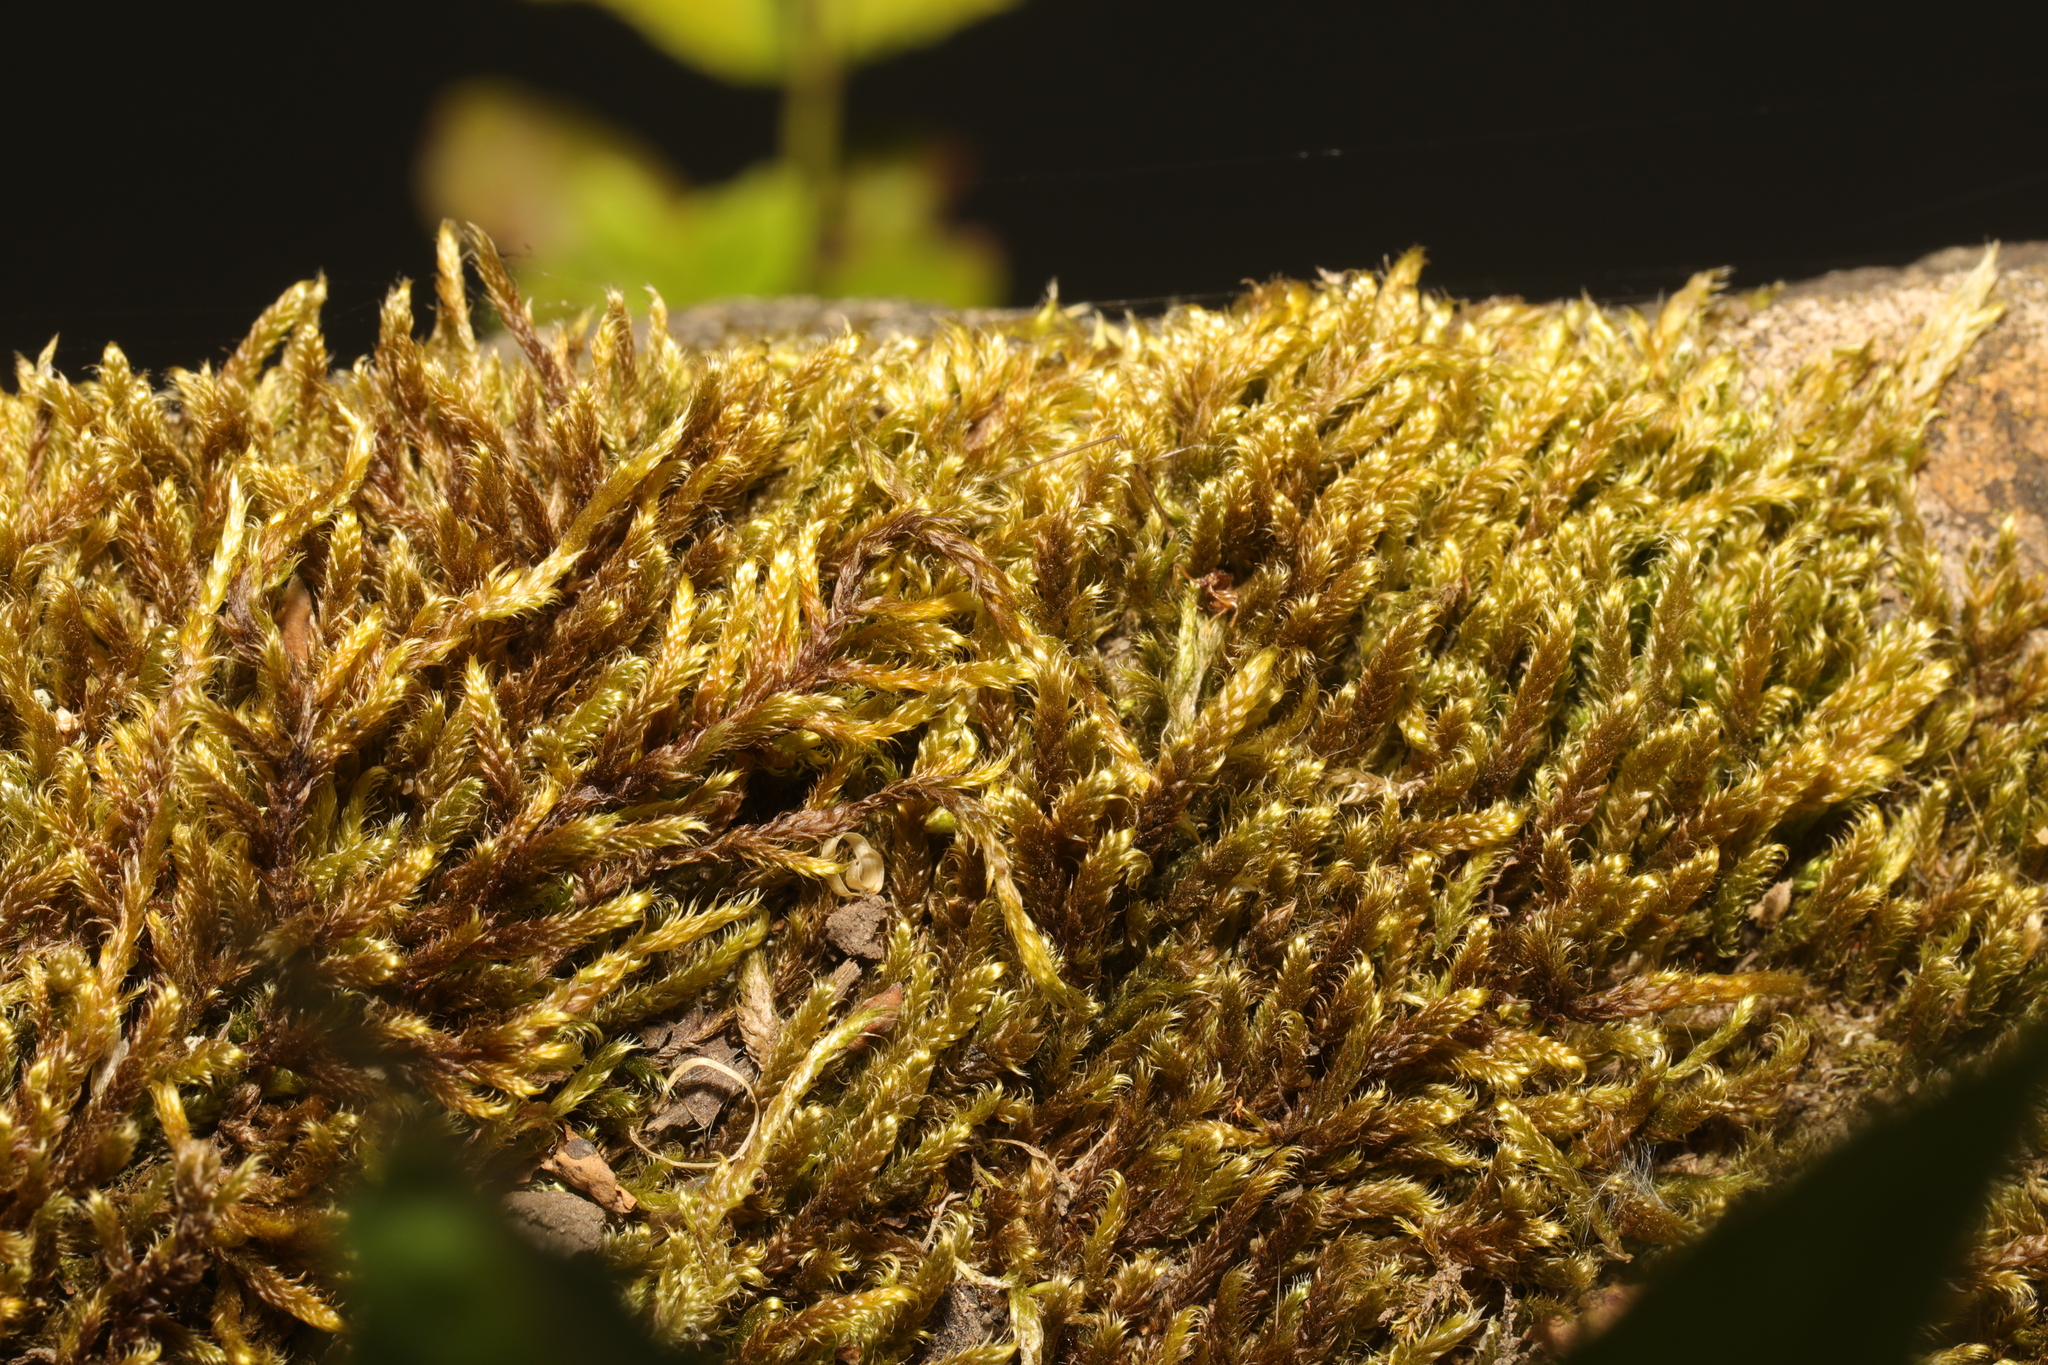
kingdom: Plantae
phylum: Bryophyta
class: Bryopsida
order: Hypnales
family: Hypnaceae
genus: Hypnum
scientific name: Hypnum cupressiforme
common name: Cypress-leaved plait-moss
